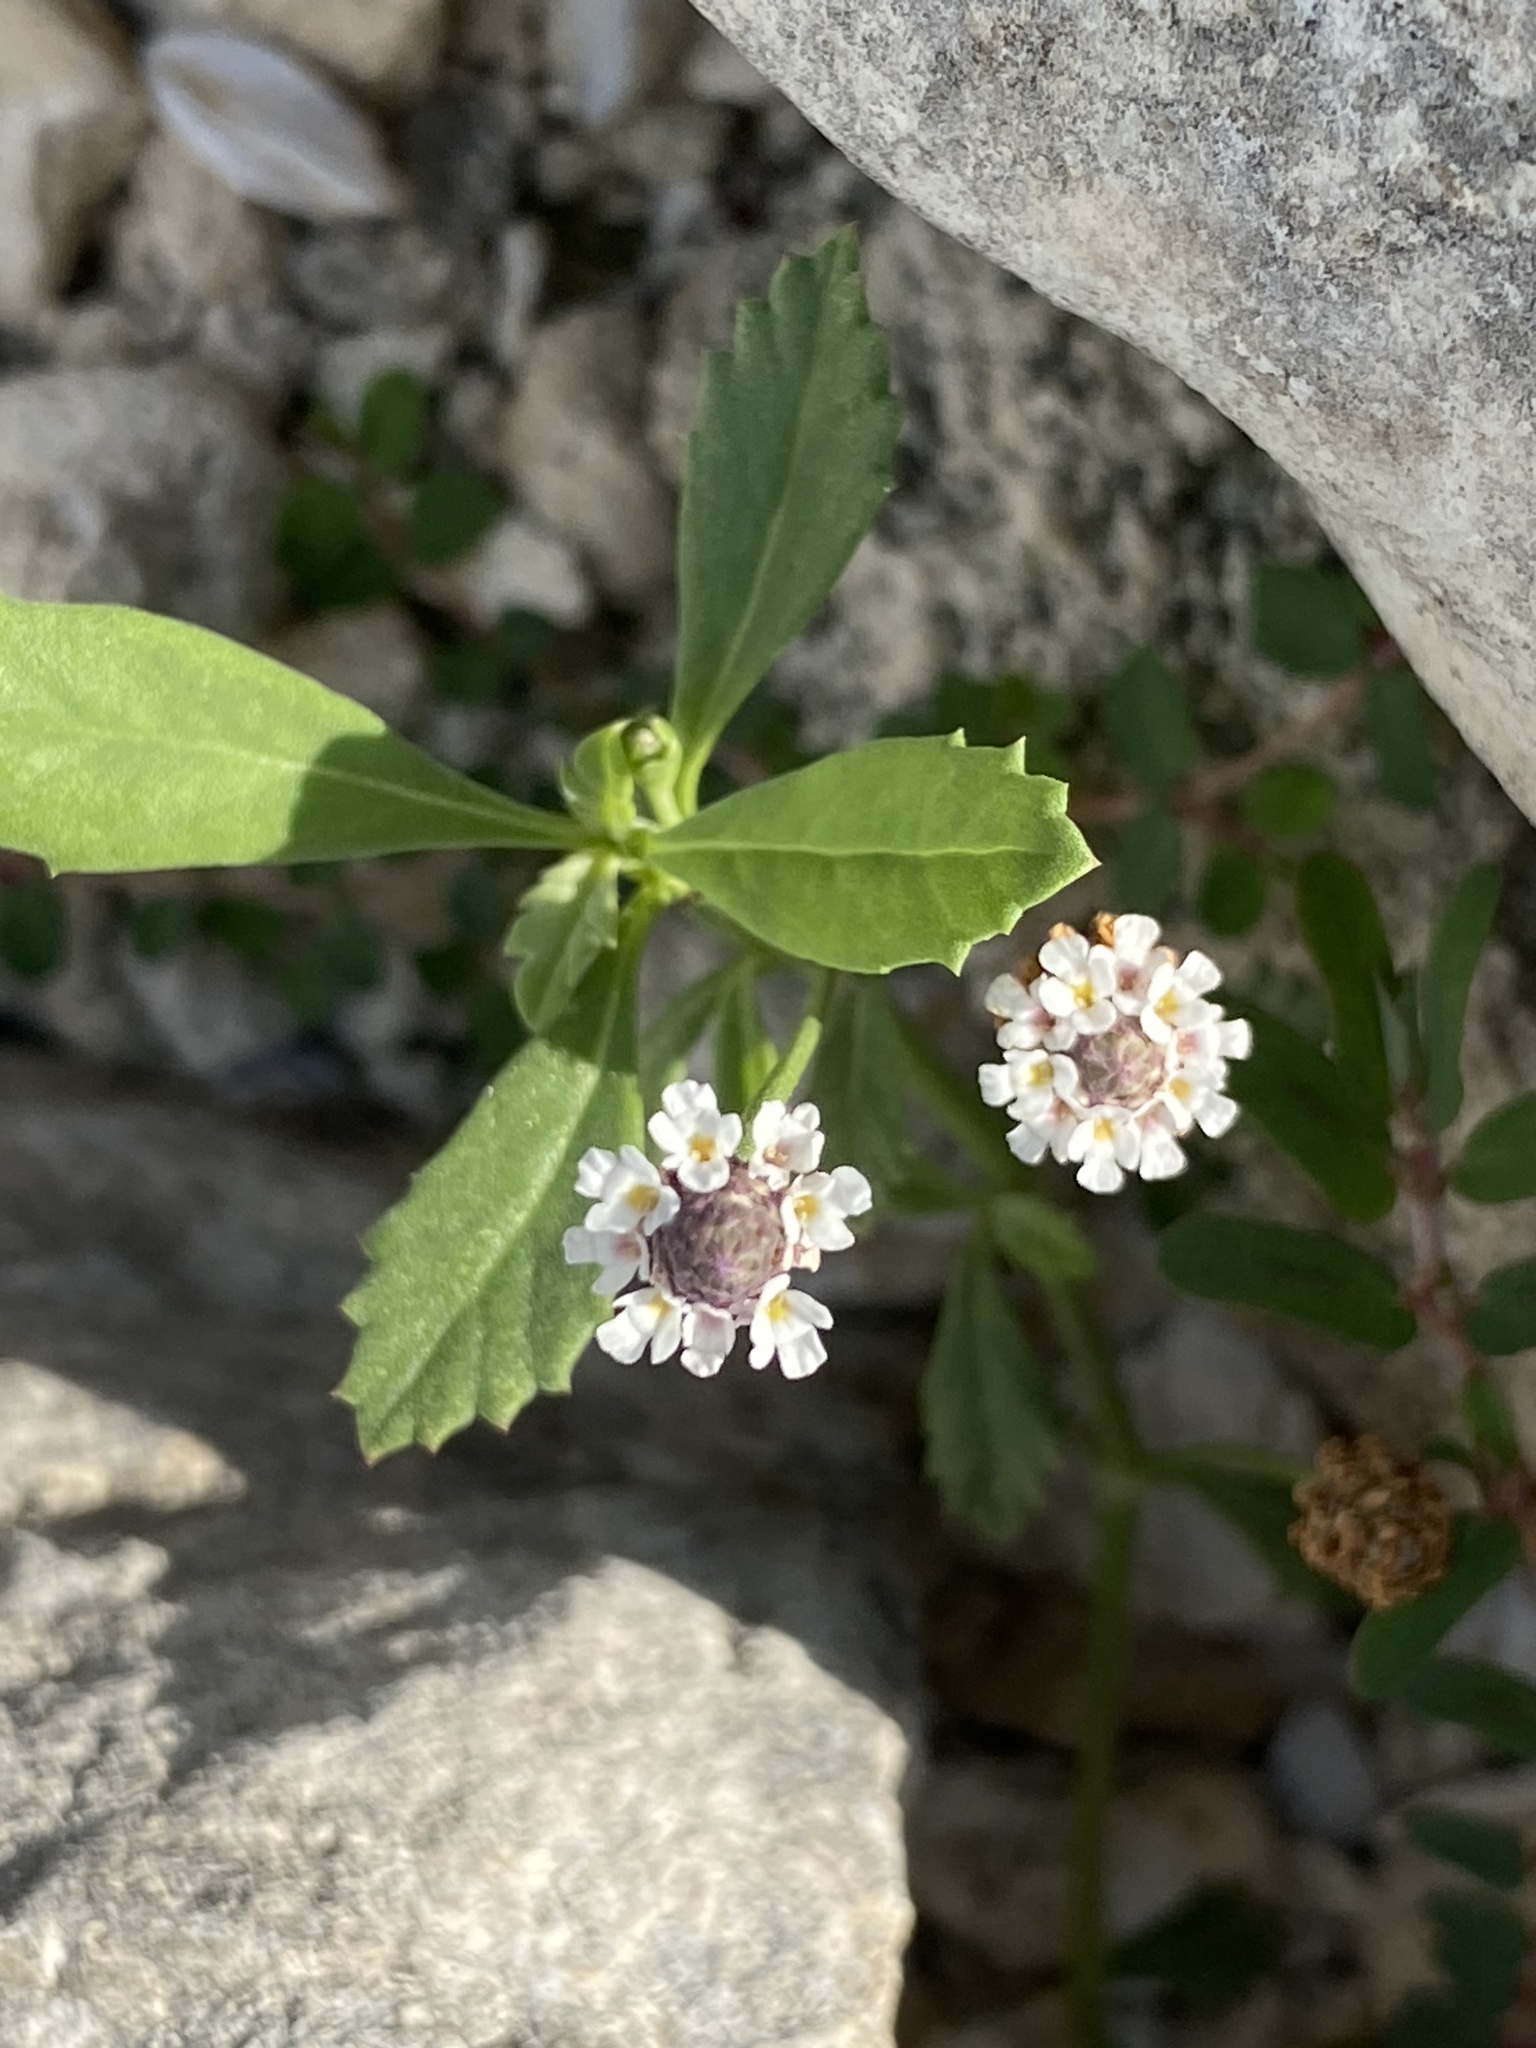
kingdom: Plantae
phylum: Tracheophyta
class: Magnoliopsida
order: Lamiales
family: Verbenaceae
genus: Phyla
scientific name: Phyla nodiflora
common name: Frogfruit
